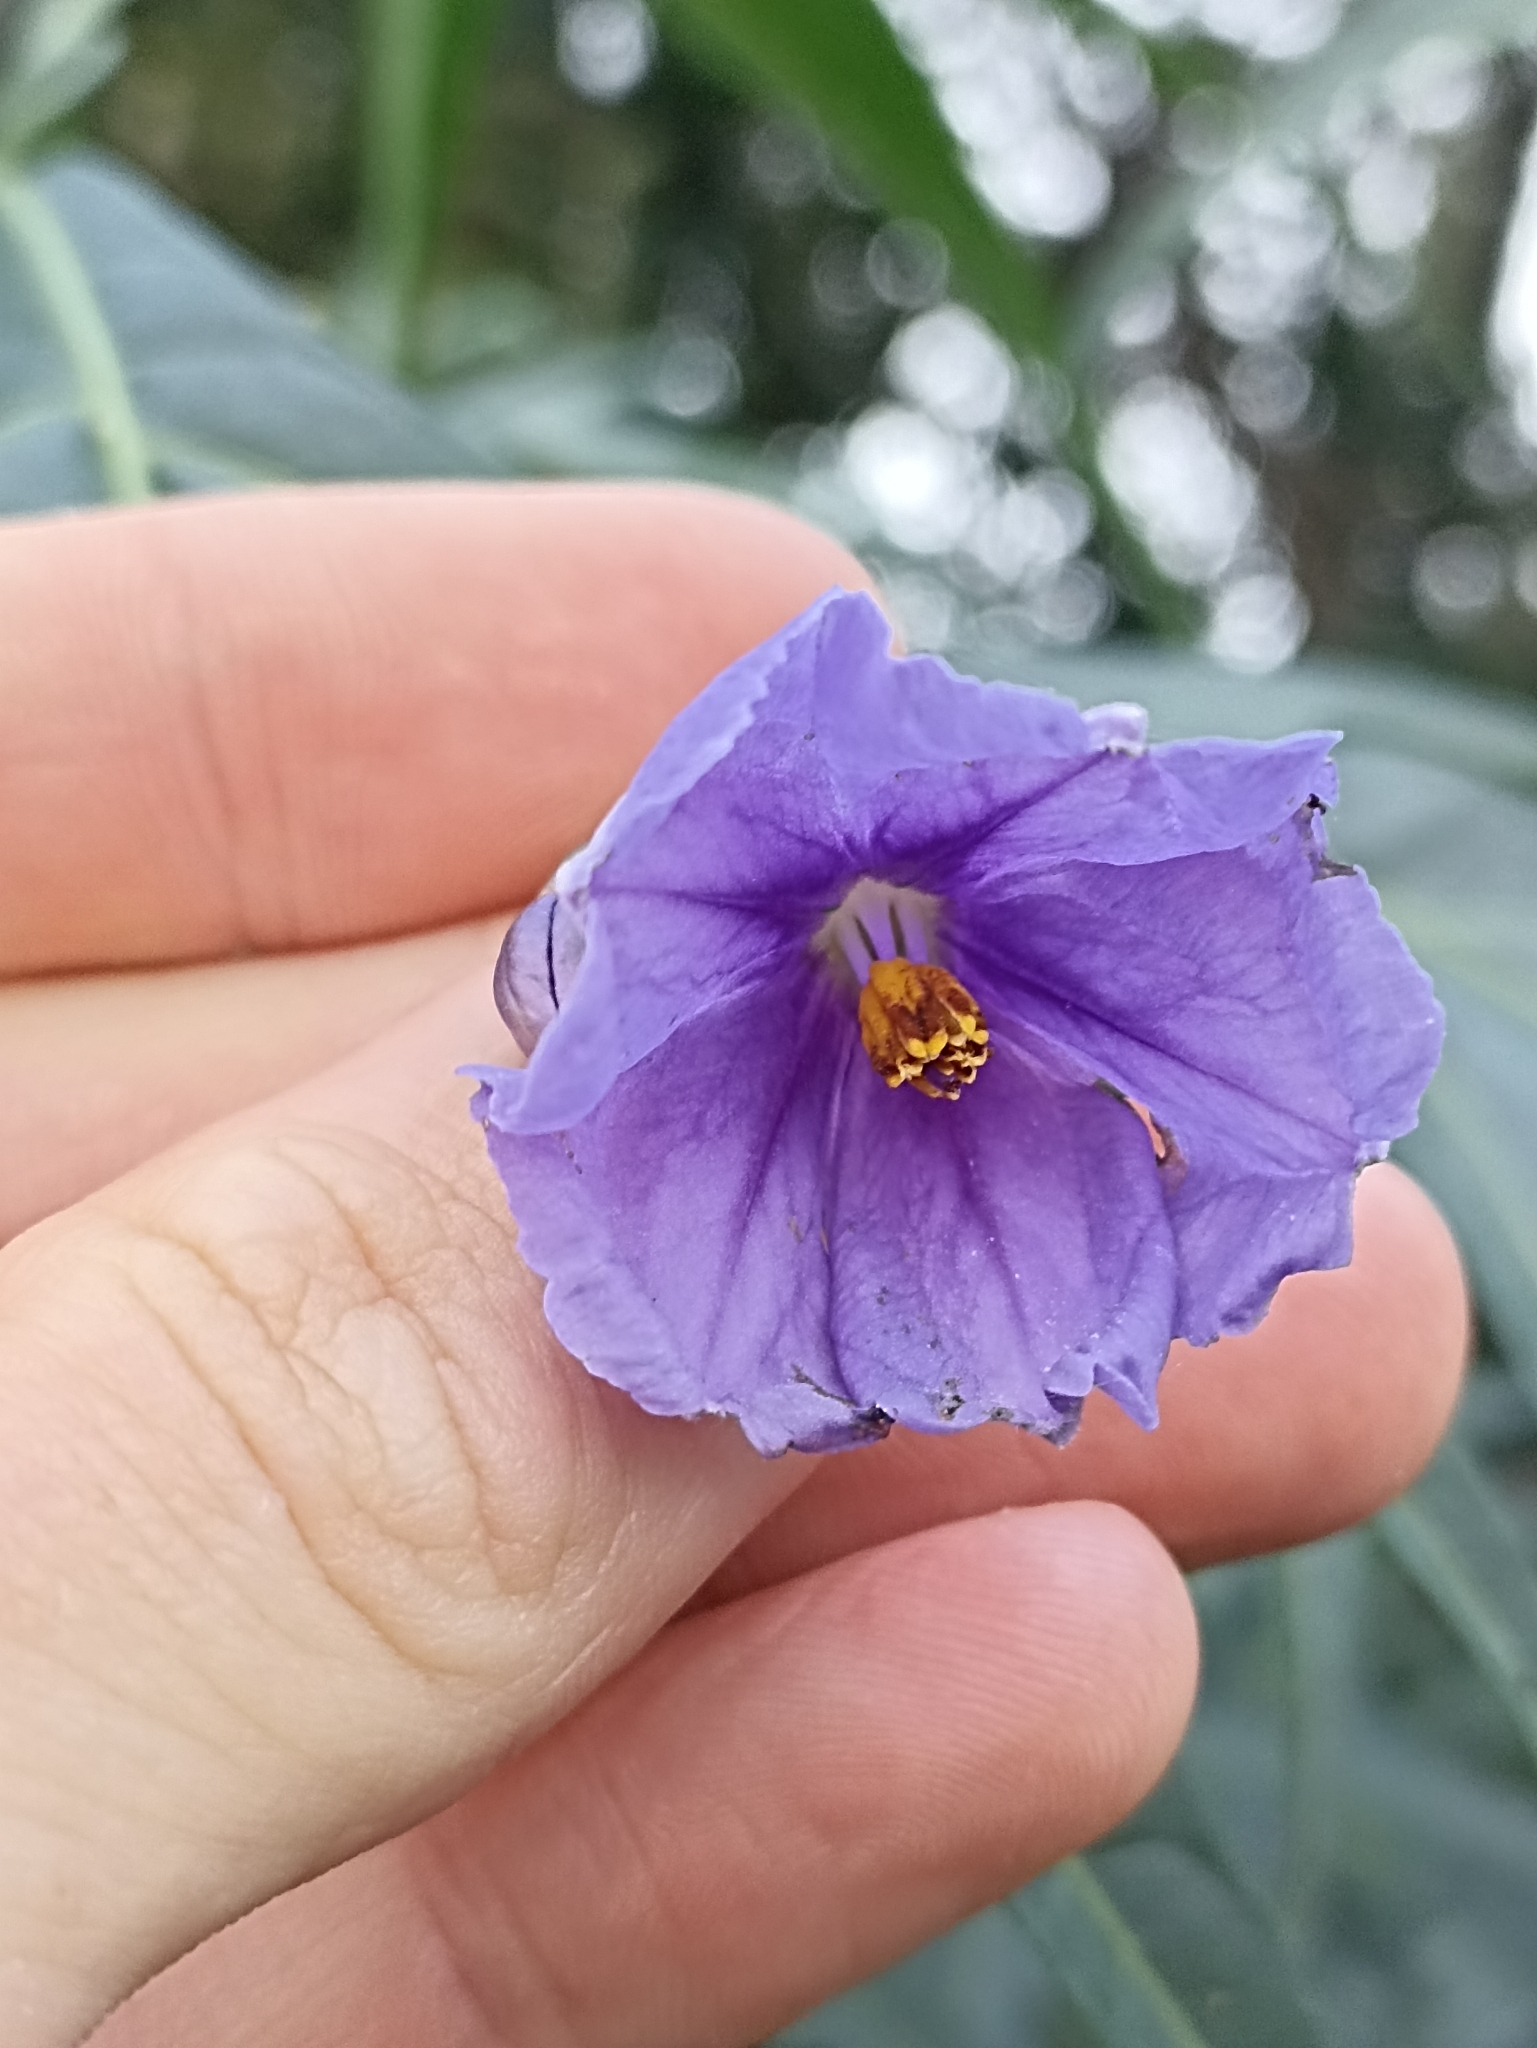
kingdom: Plantae
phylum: Tracheophyta
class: Magnoliopsida
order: Solanales
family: Solanaceae
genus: Solanum
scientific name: Solanum laciniatum
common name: Kangaroo-apple
